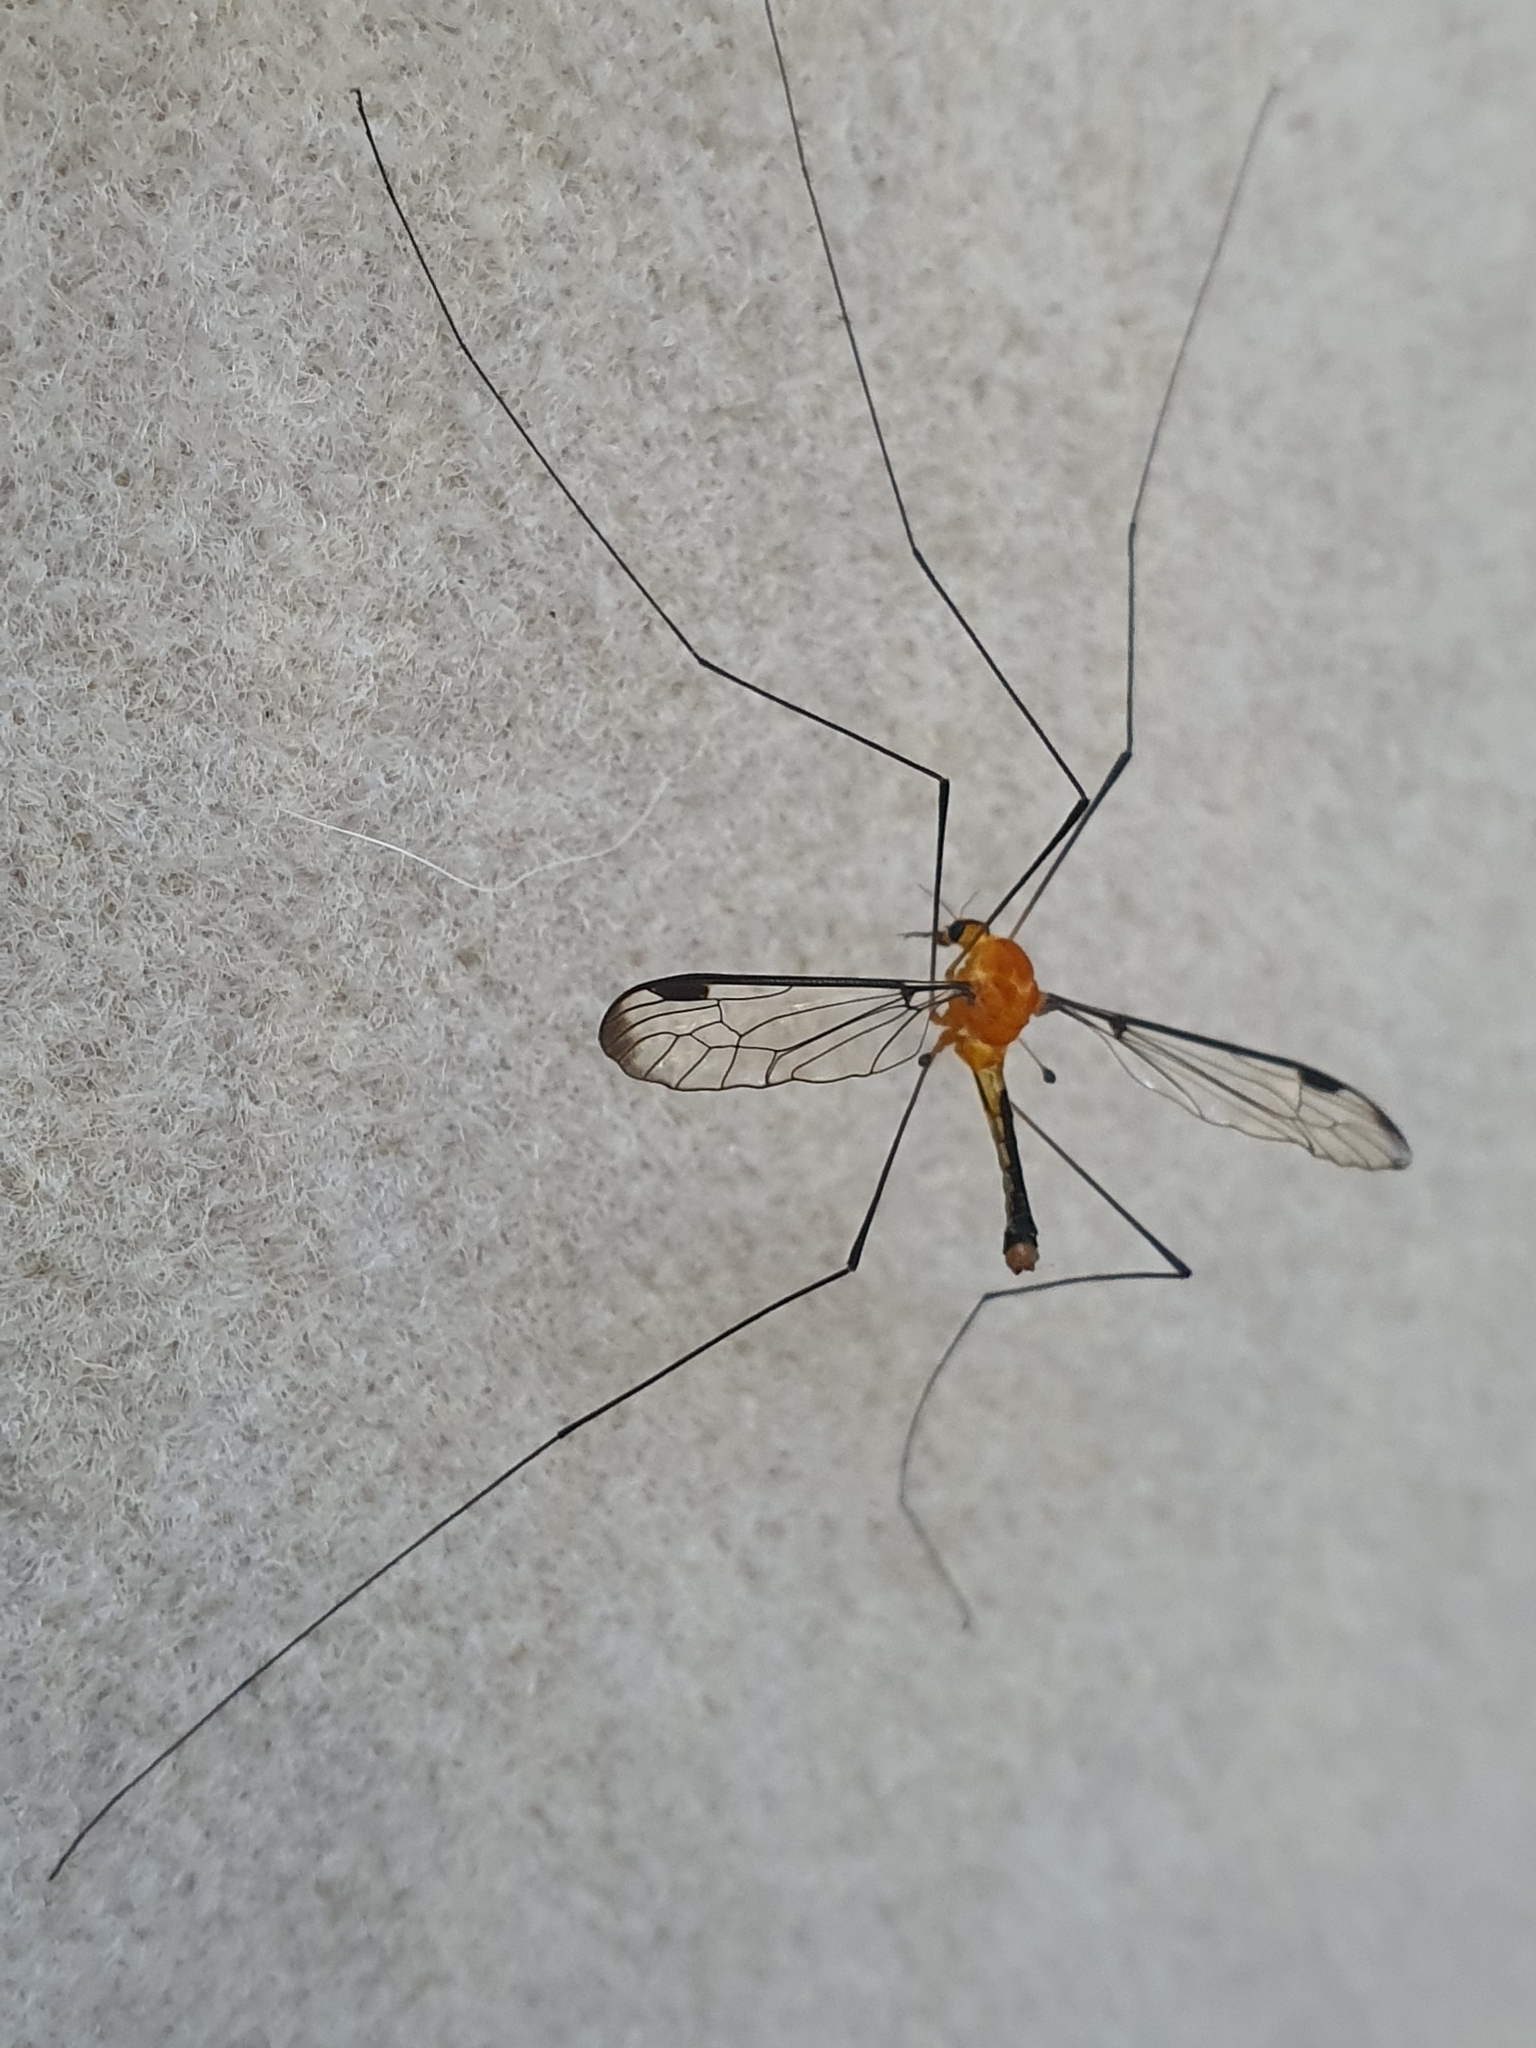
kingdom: Animalia
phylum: Arthropoda
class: Insecta
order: Diptera
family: Tipulidae
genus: Aurotipula
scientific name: Aurotipula
